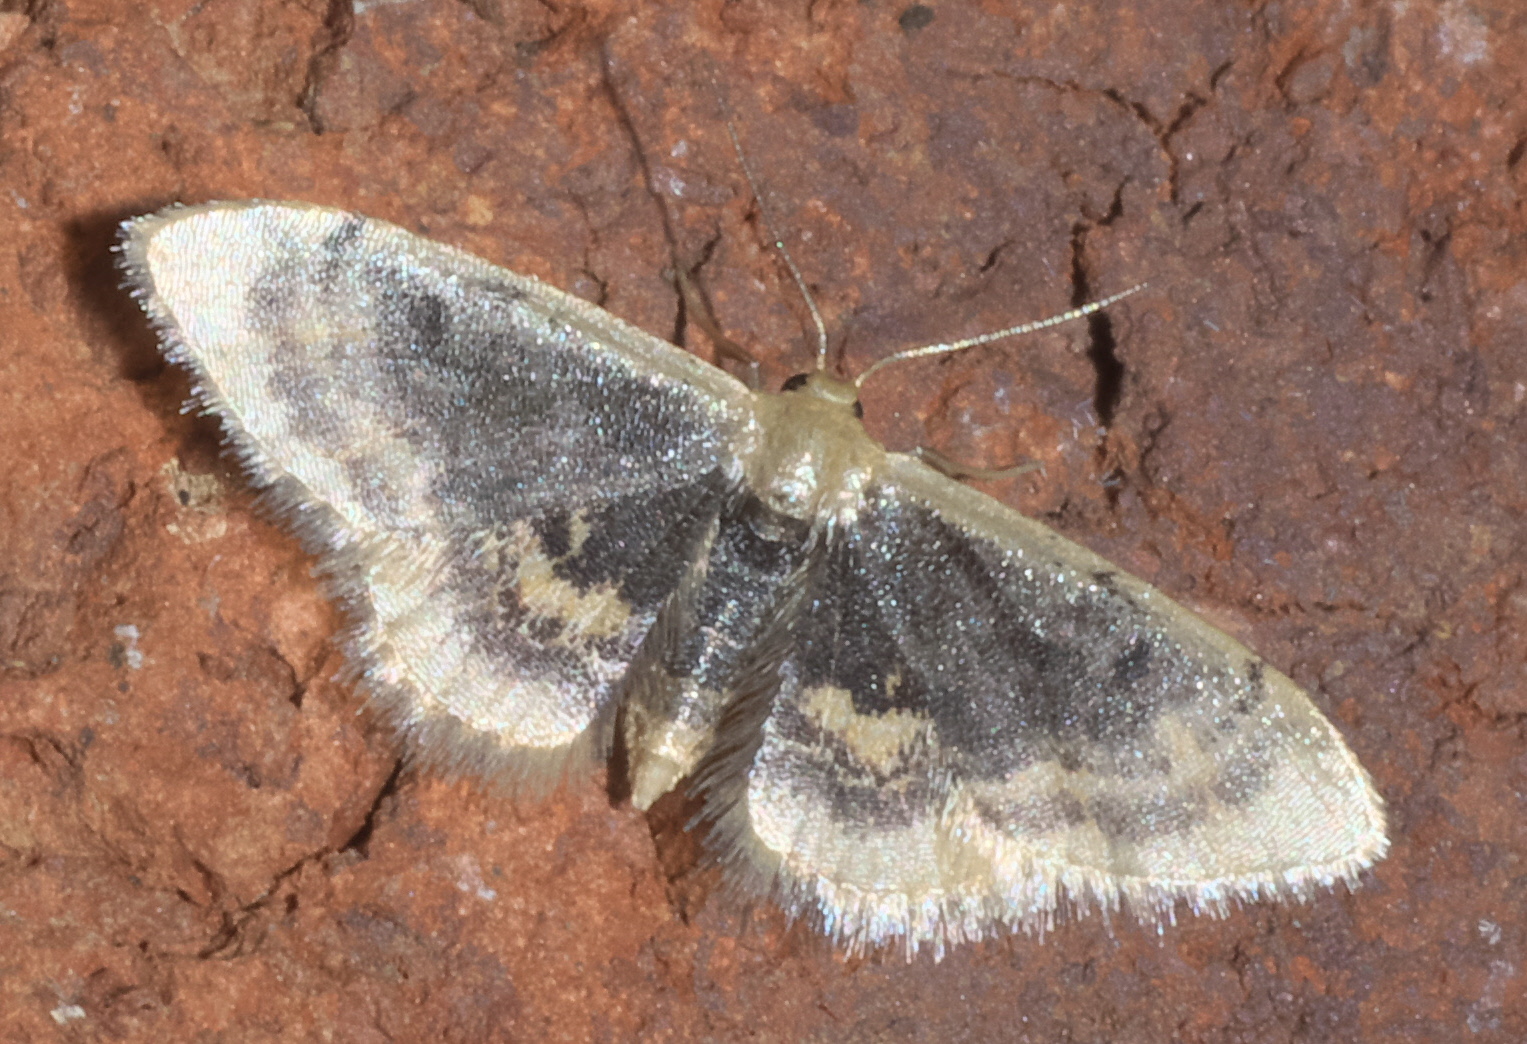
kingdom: Animalia
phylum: Arthropoda
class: Insecta
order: Lepidoptera
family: Geometridae
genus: Idaea
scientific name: Idaea scintillularia
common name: Diminutive wave
